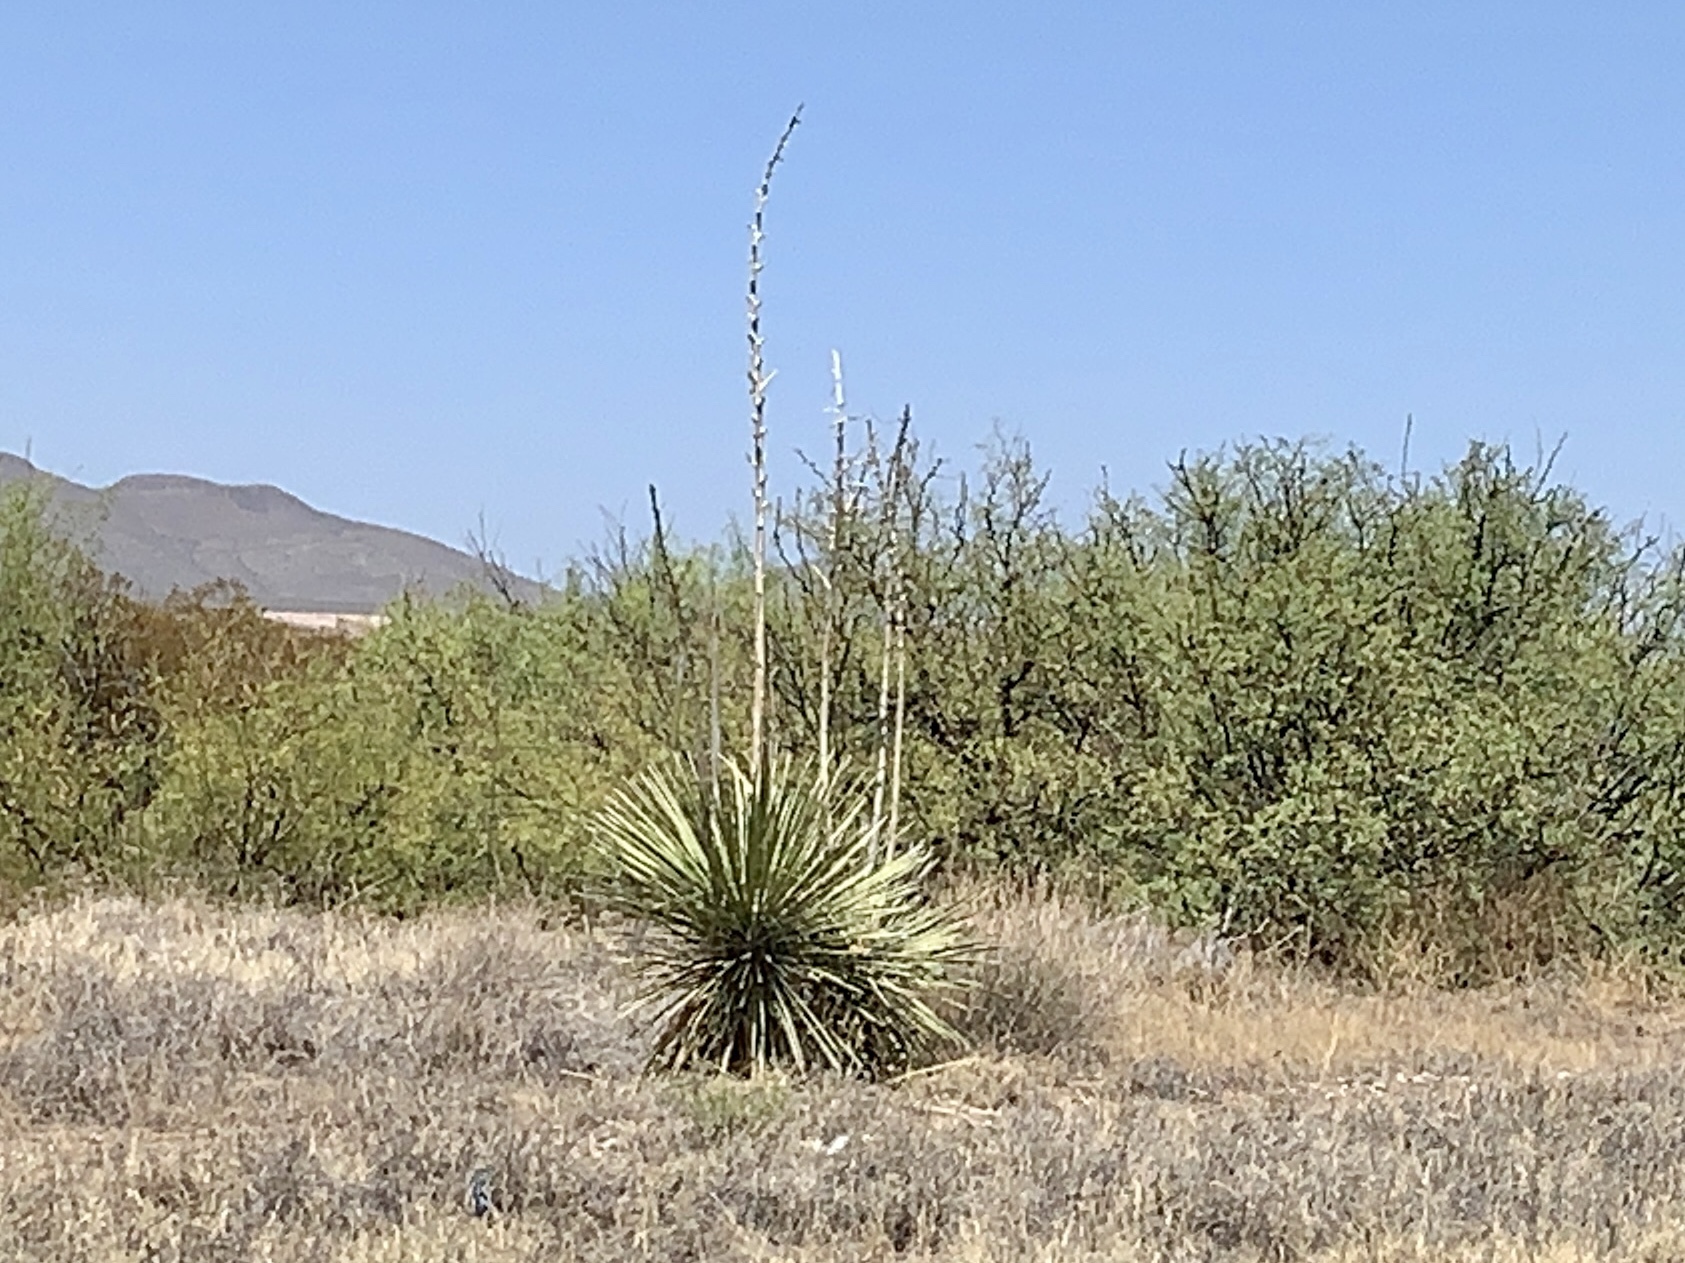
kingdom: Plantae
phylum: Tracheophyta
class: Liliopsida
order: Asparagales
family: Asparagaceae
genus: Yucca
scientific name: Yucca elata
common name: Palmella
